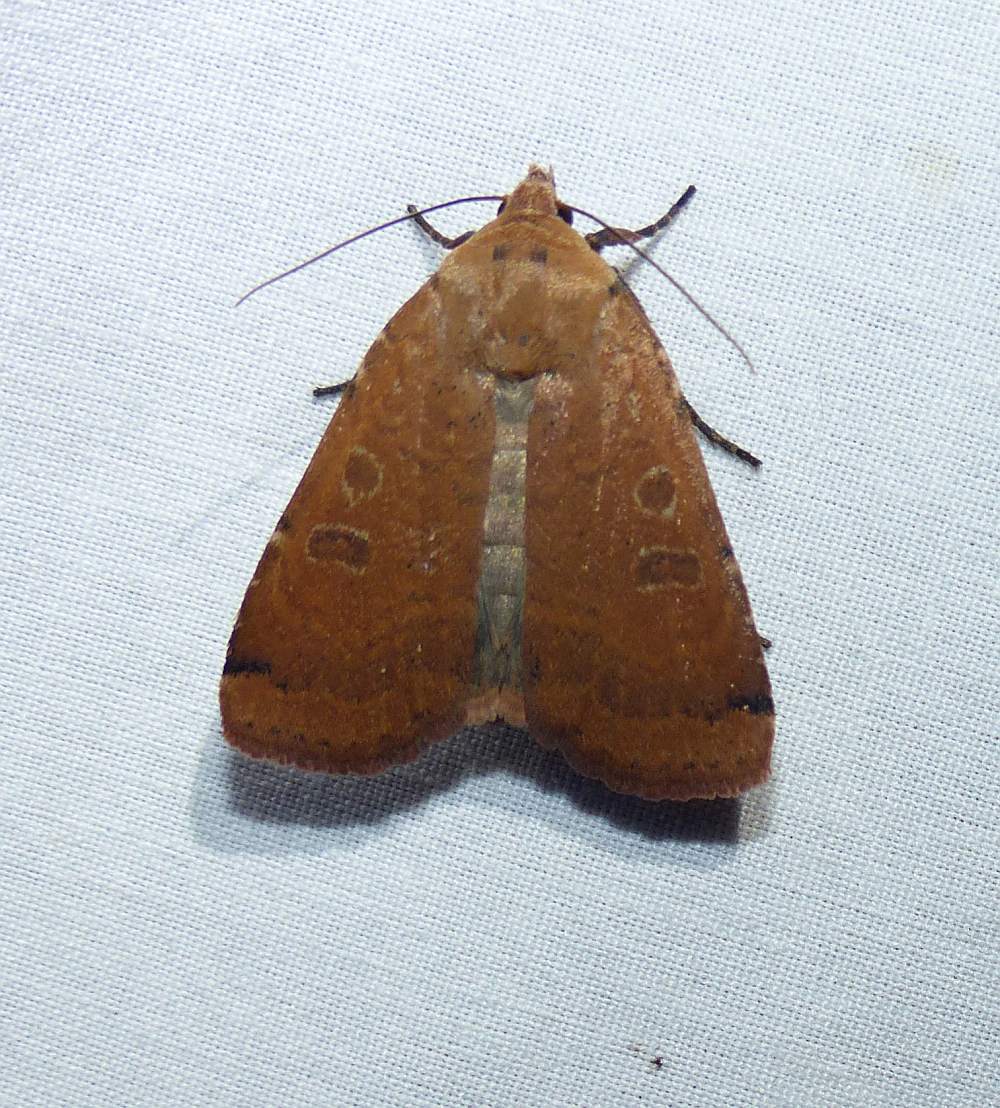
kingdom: Animalia
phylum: Arthropoda
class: Insecta
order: Lepidoptera
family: Noctuidae
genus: Abagrotis
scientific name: Abagrotis cupida
